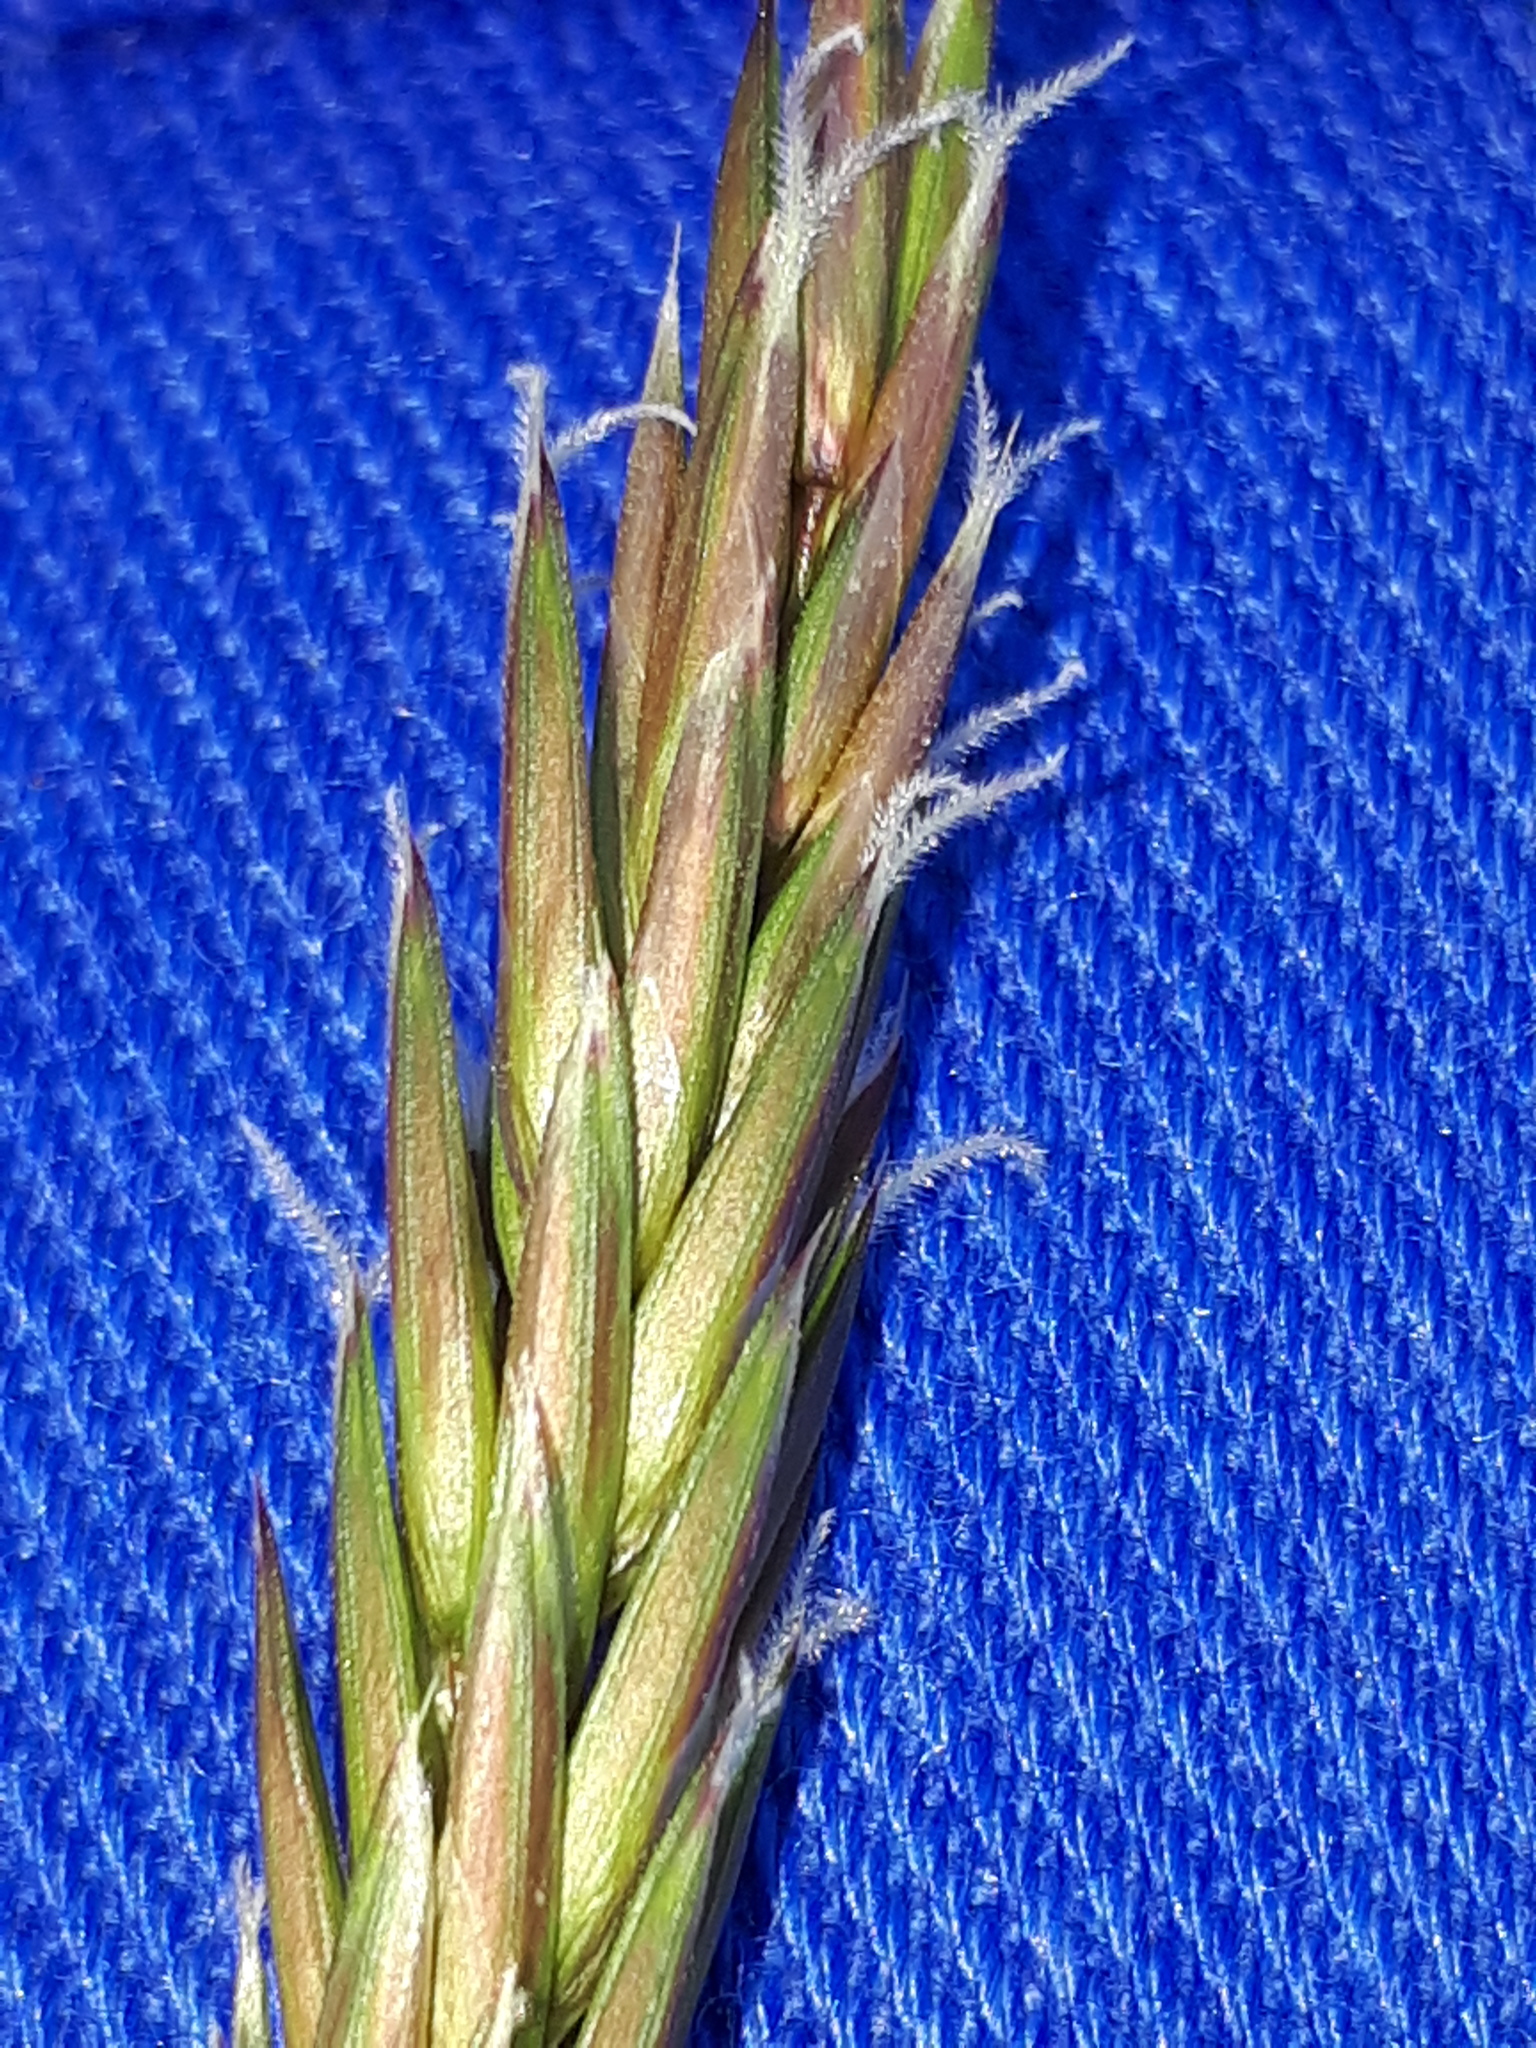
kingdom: Plantae
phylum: Tracheophyta
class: Liliopsida
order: Poales
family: Poaceae
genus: Anthoxanthum
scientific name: Anthoxanthum odoratum
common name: Sweet vernalgrass
